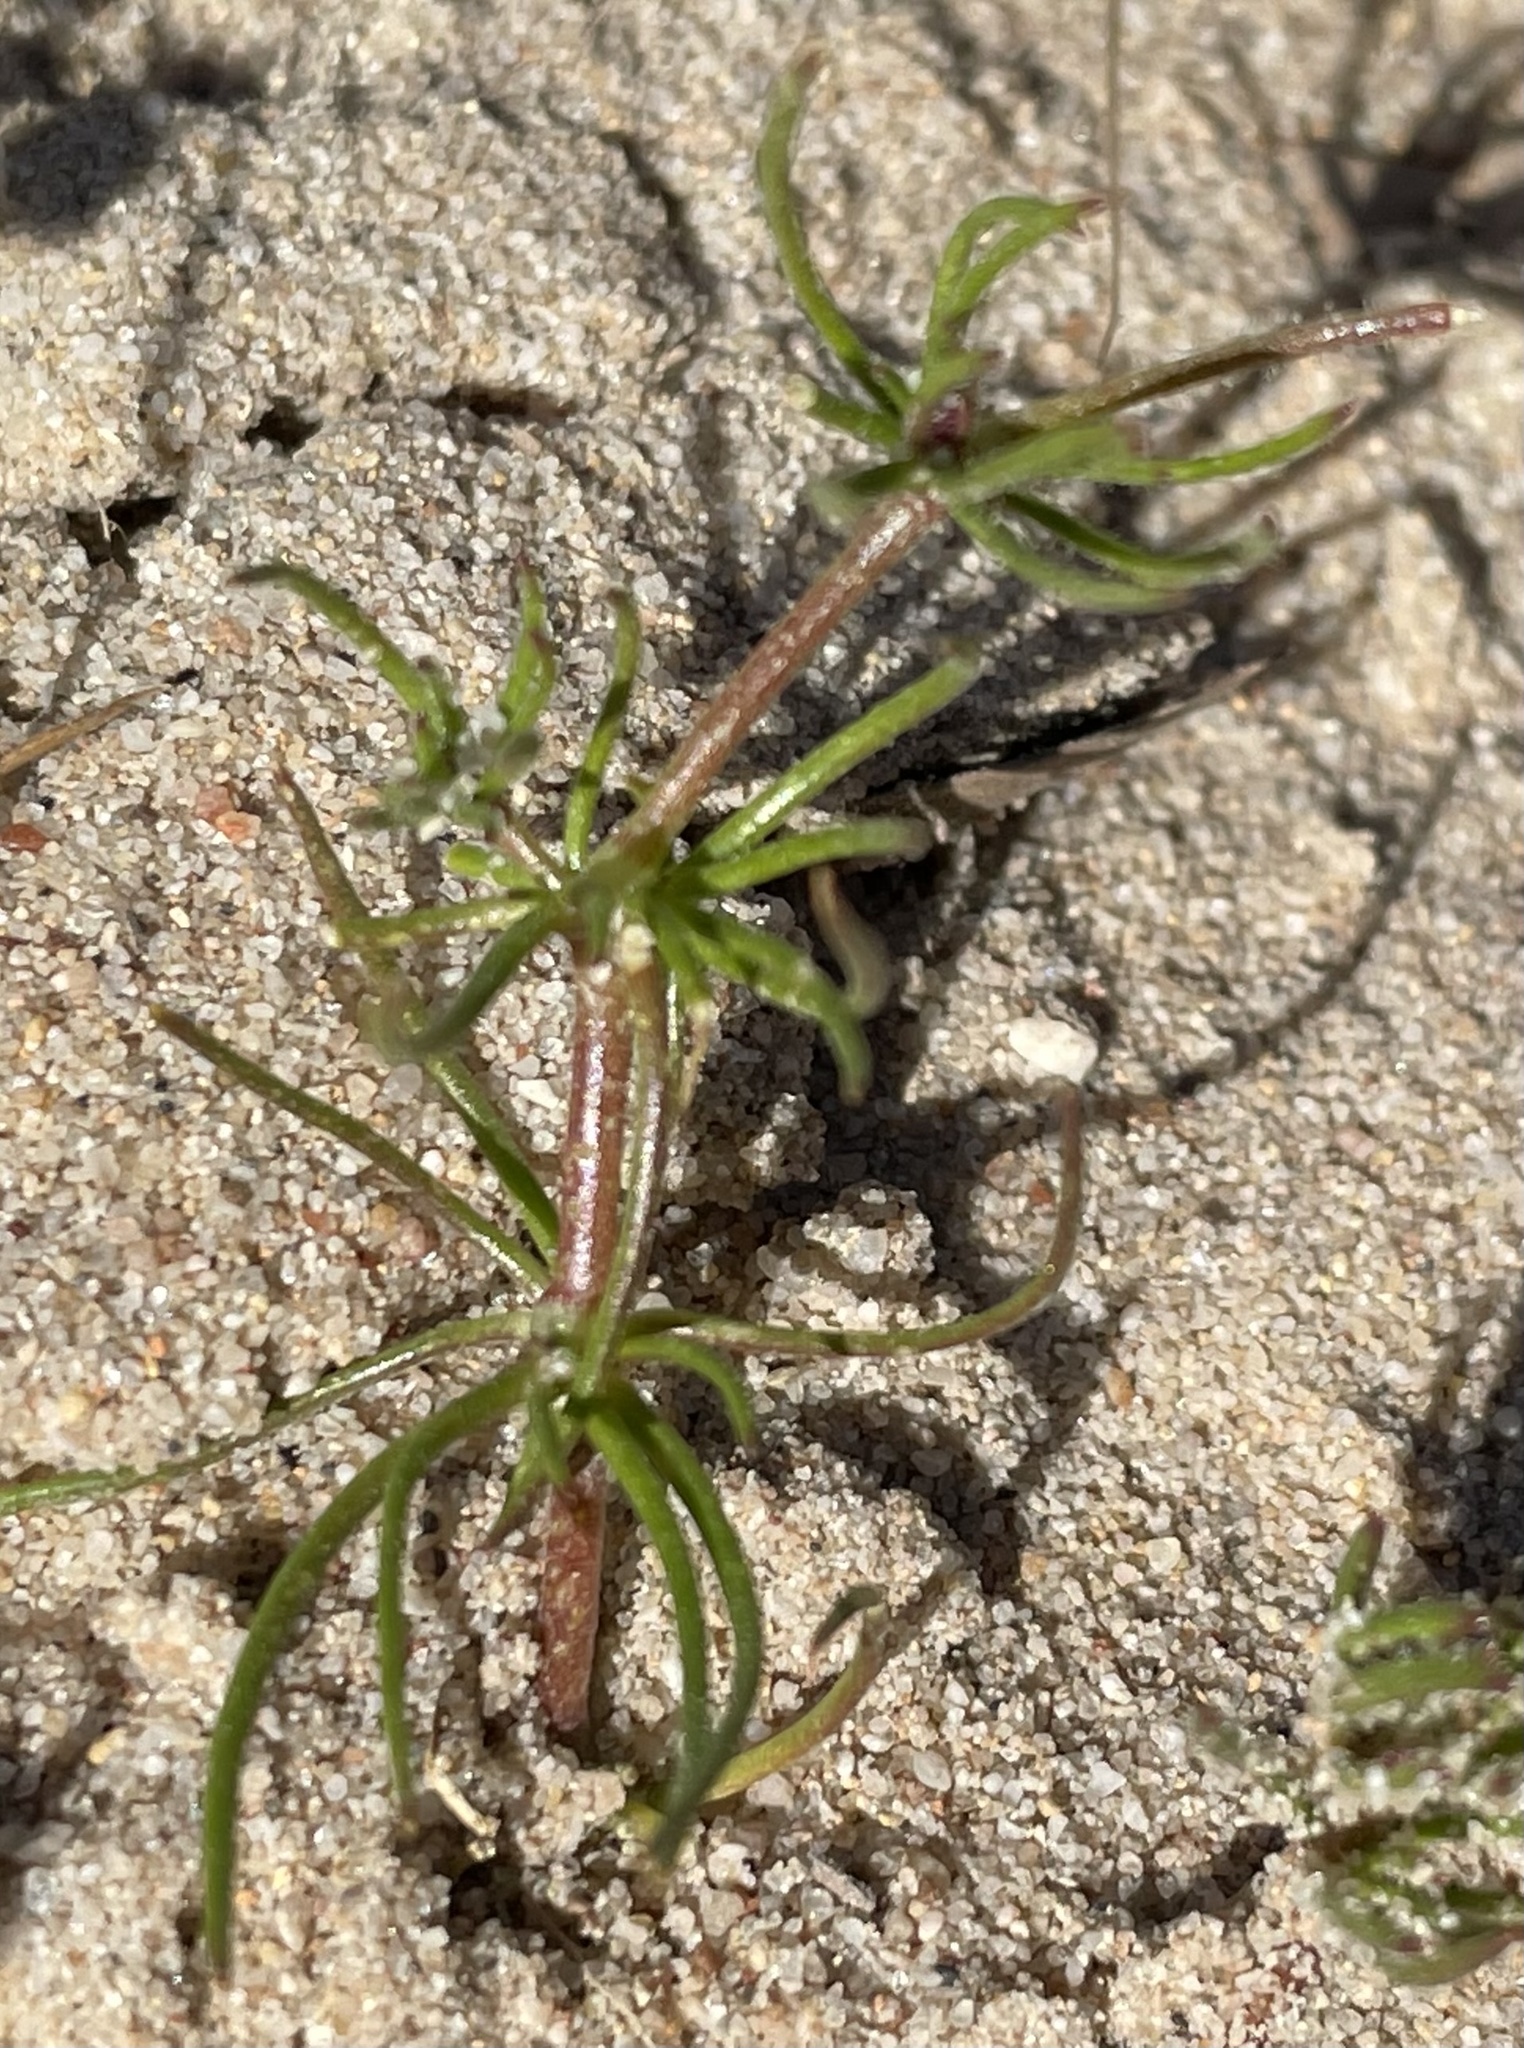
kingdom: Plantae
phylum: Tracheophyta
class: Magnoliopsida
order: Caryophyllales
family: Caryophyllaceae
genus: Spergula
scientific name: Spergula arvensis
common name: Corn spurrey
